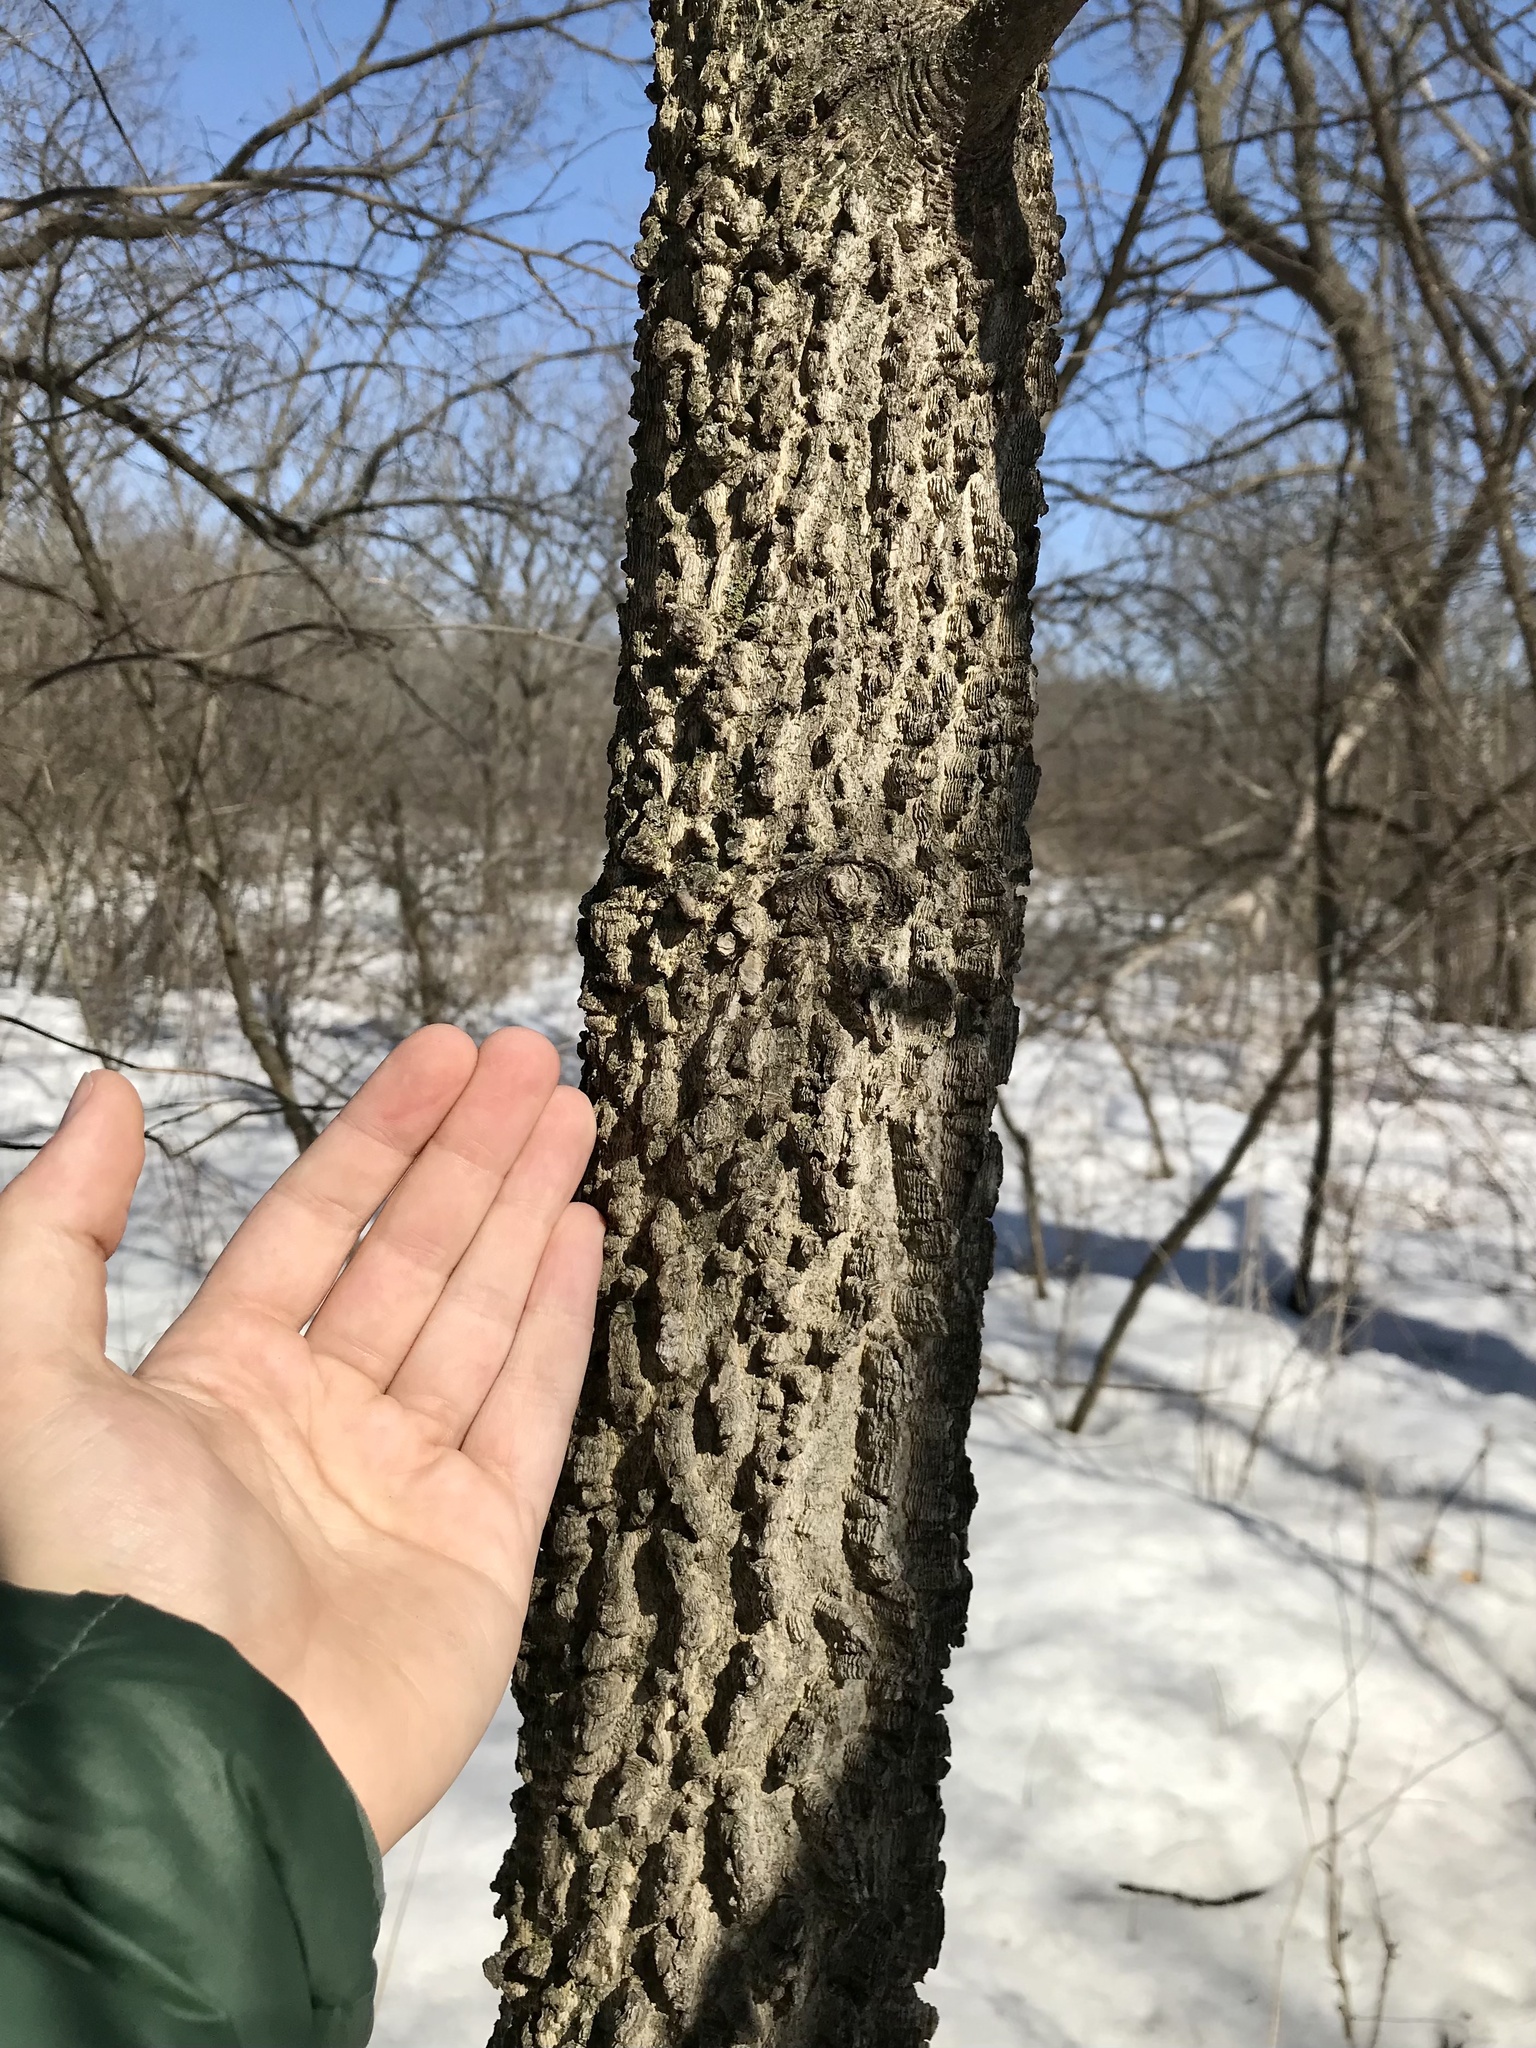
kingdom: Plantae
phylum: Tracheophyta
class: Magnoliopsida
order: Rosales
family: Cannabaceae
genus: Celtis
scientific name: Celtis occidentalis
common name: Common hackberry
